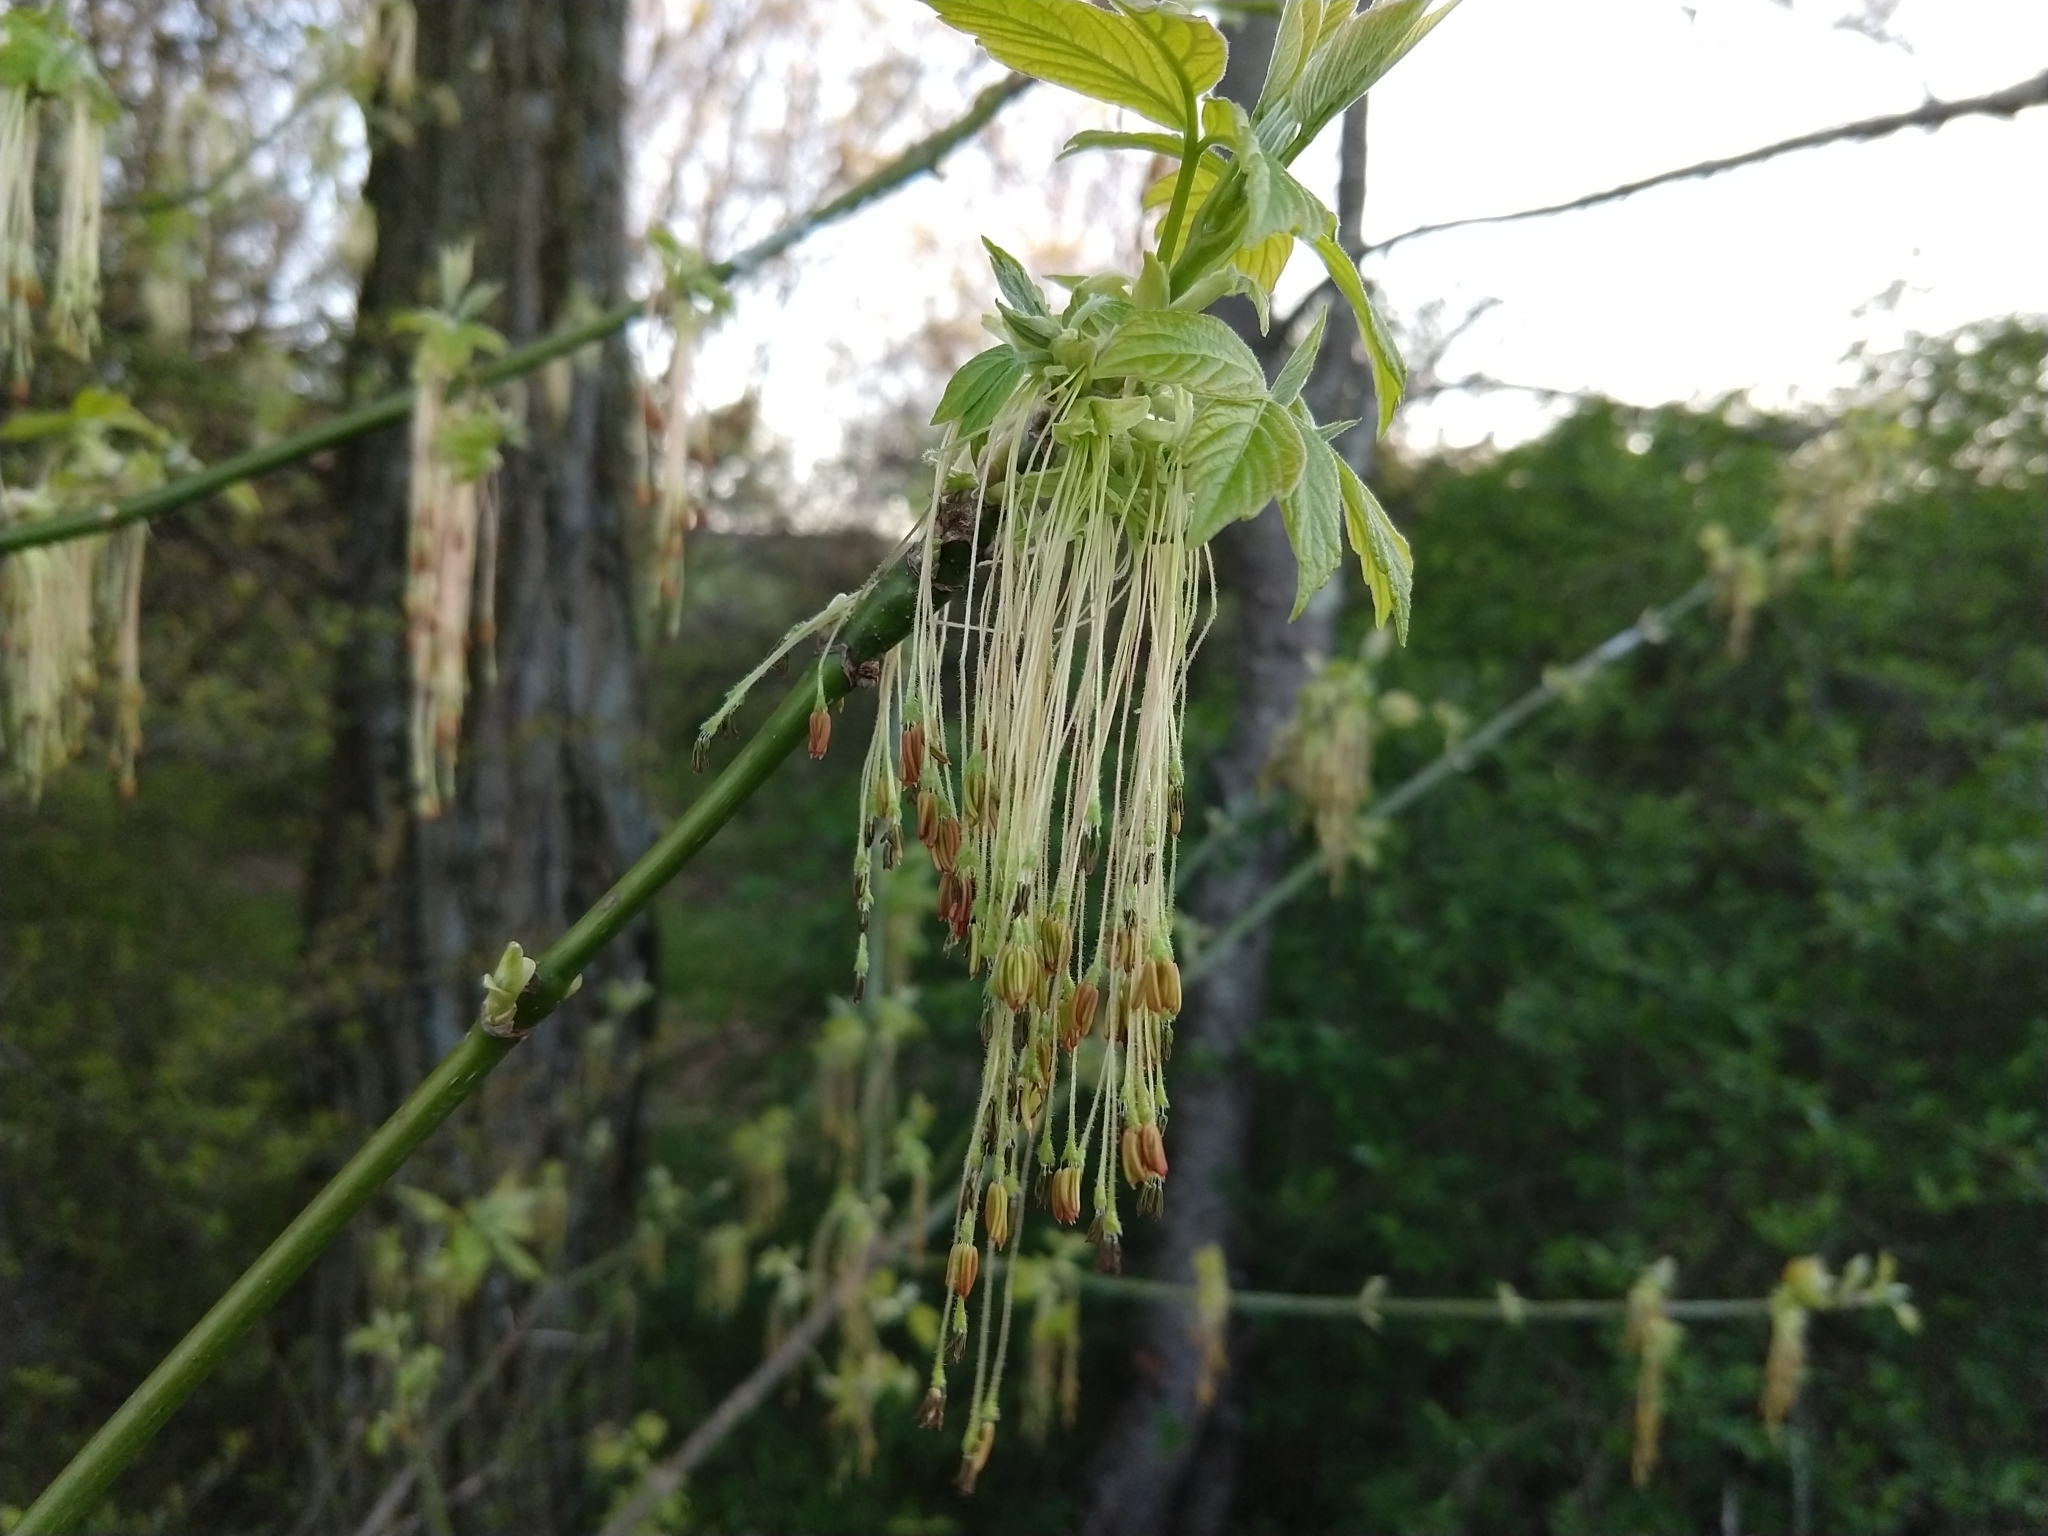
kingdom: Plantae
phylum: Tracheophyta
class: Magnoliopsida
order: Sapindales
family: Sapindaceae
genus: Acer
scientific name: Acer negundo
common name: Ashleaf maple
